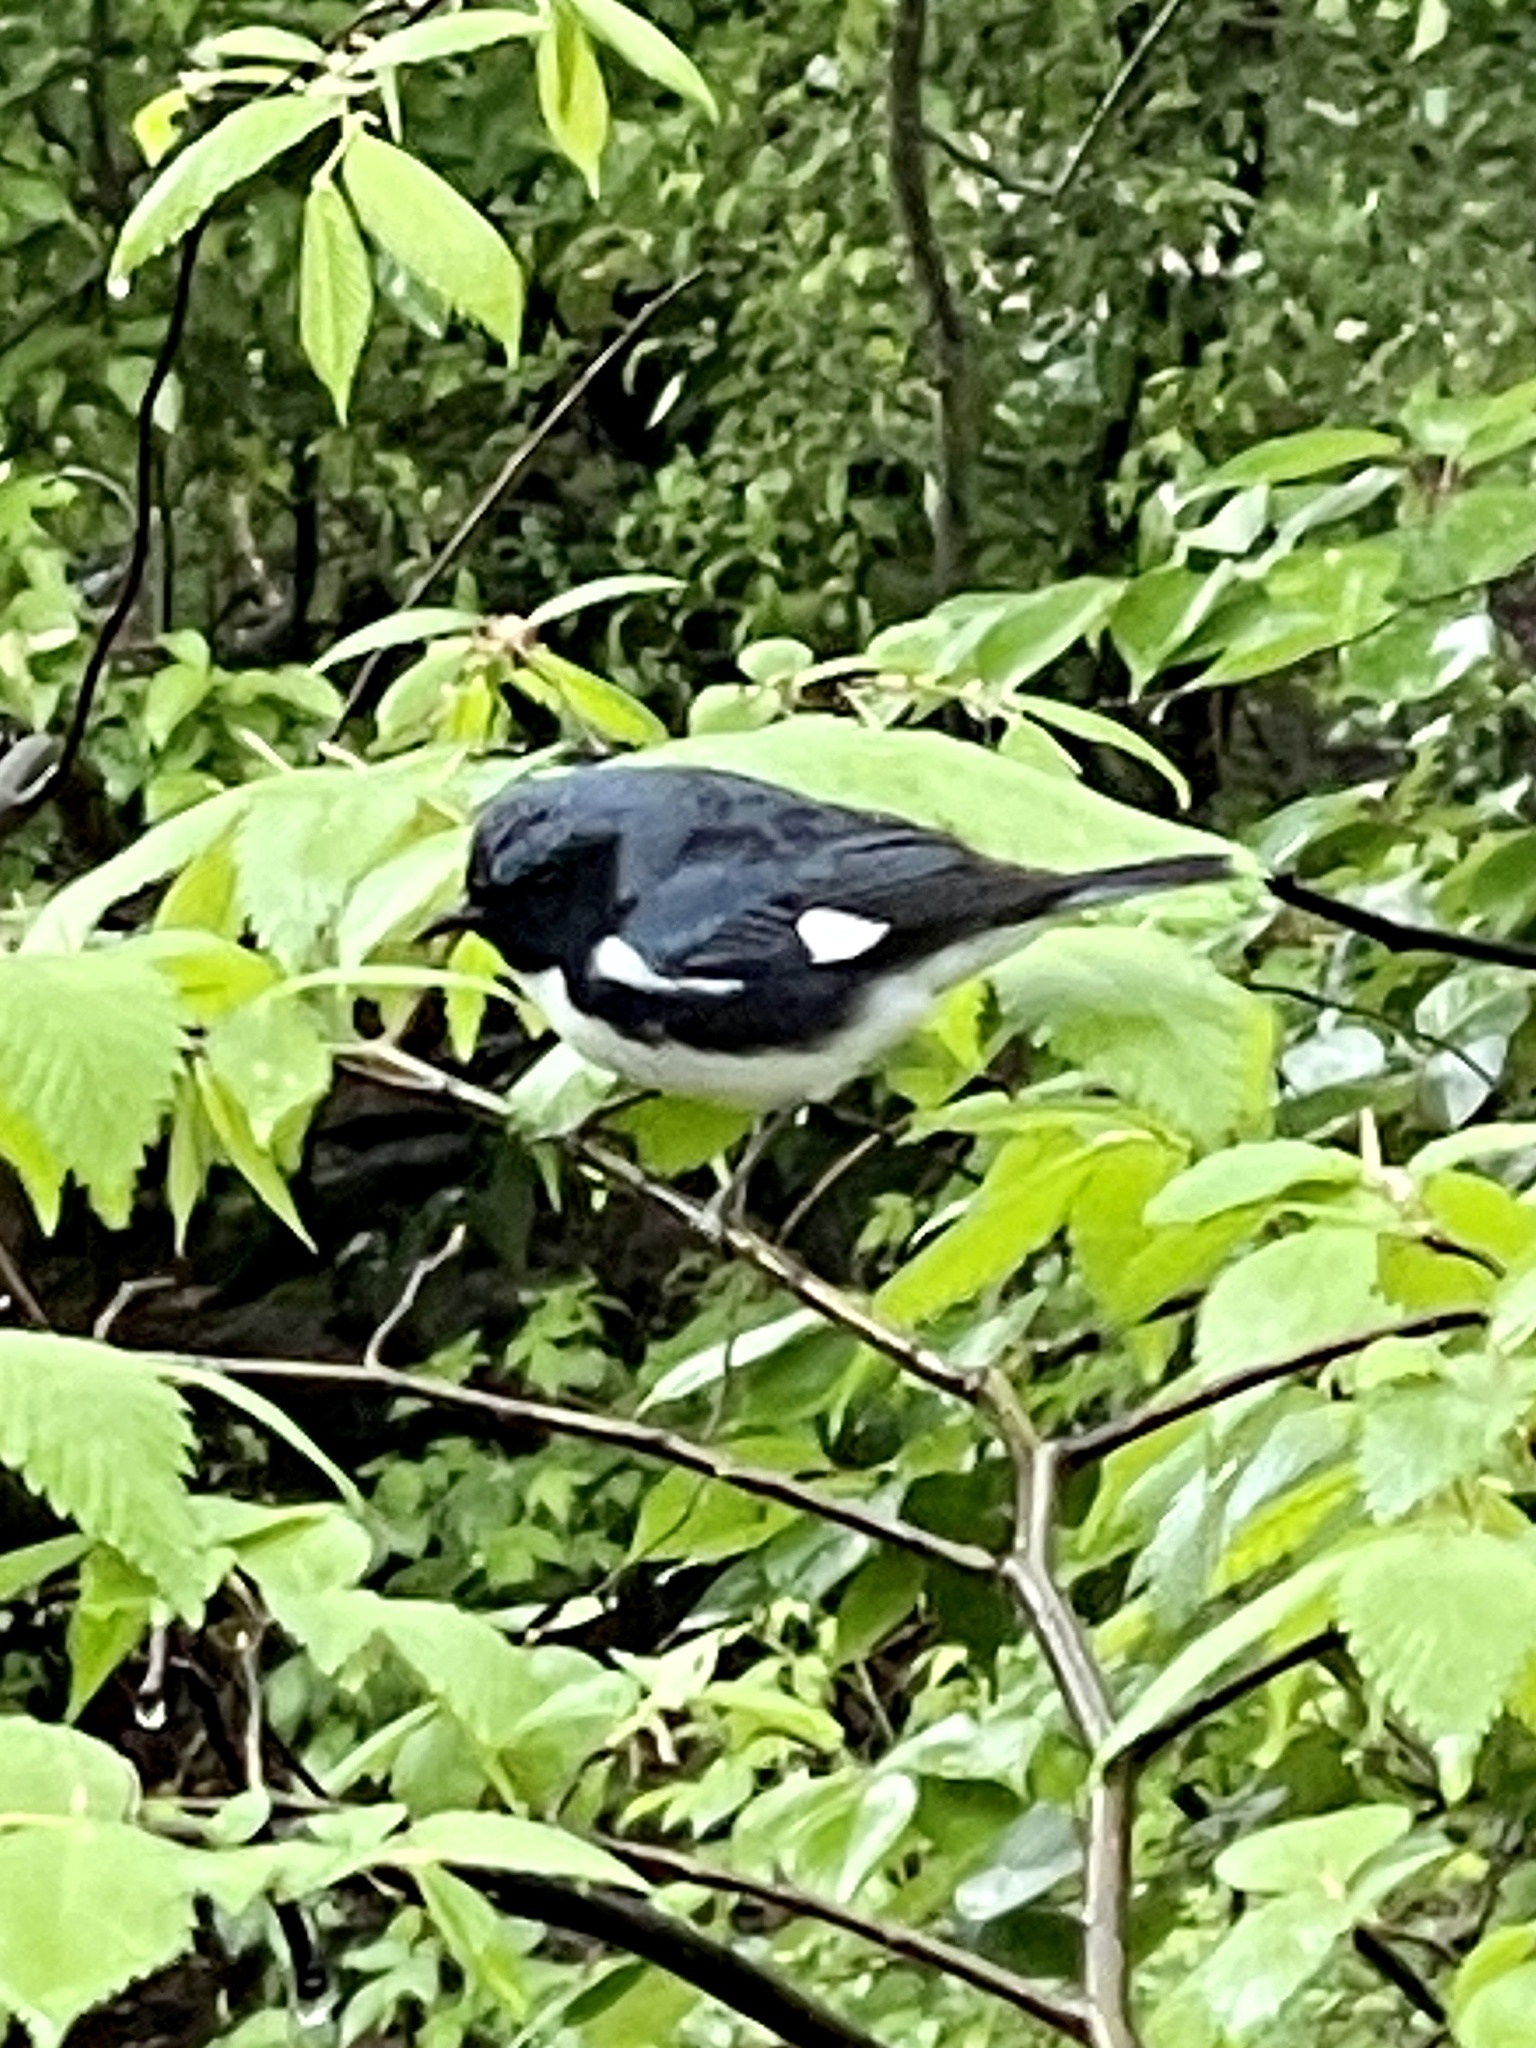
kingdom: Animalia
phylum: Chordata
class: Aves
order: Passeriformes
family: Parulidae
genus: Setophaga
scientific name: Setophaga caerulescens
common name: Black-throated blue warbler
